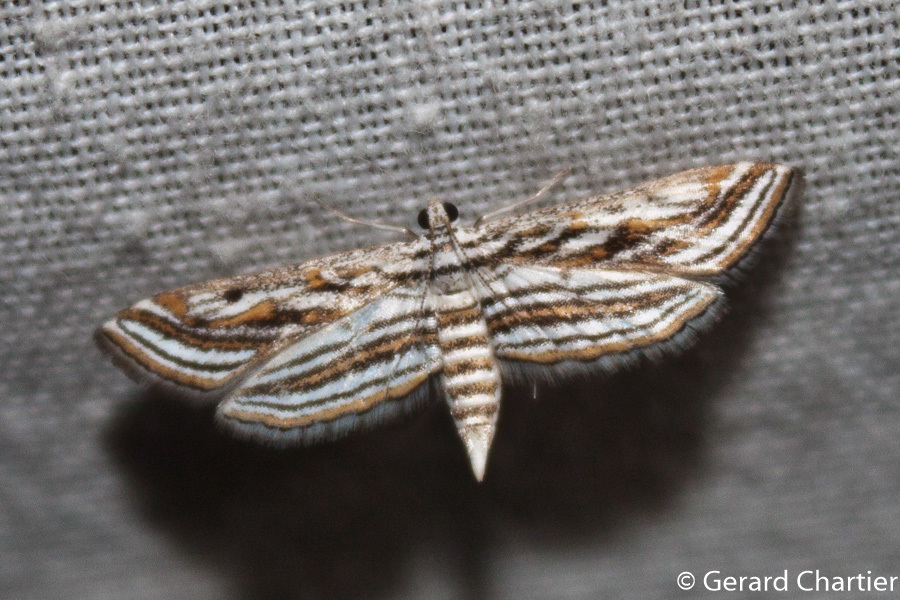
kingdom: Animalia
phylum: Arthropoda
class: Insecta
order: Lepidoptera
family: Crambidae
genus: Parapoynx
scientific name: Parapoynx fluctuosalis
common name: Moth
